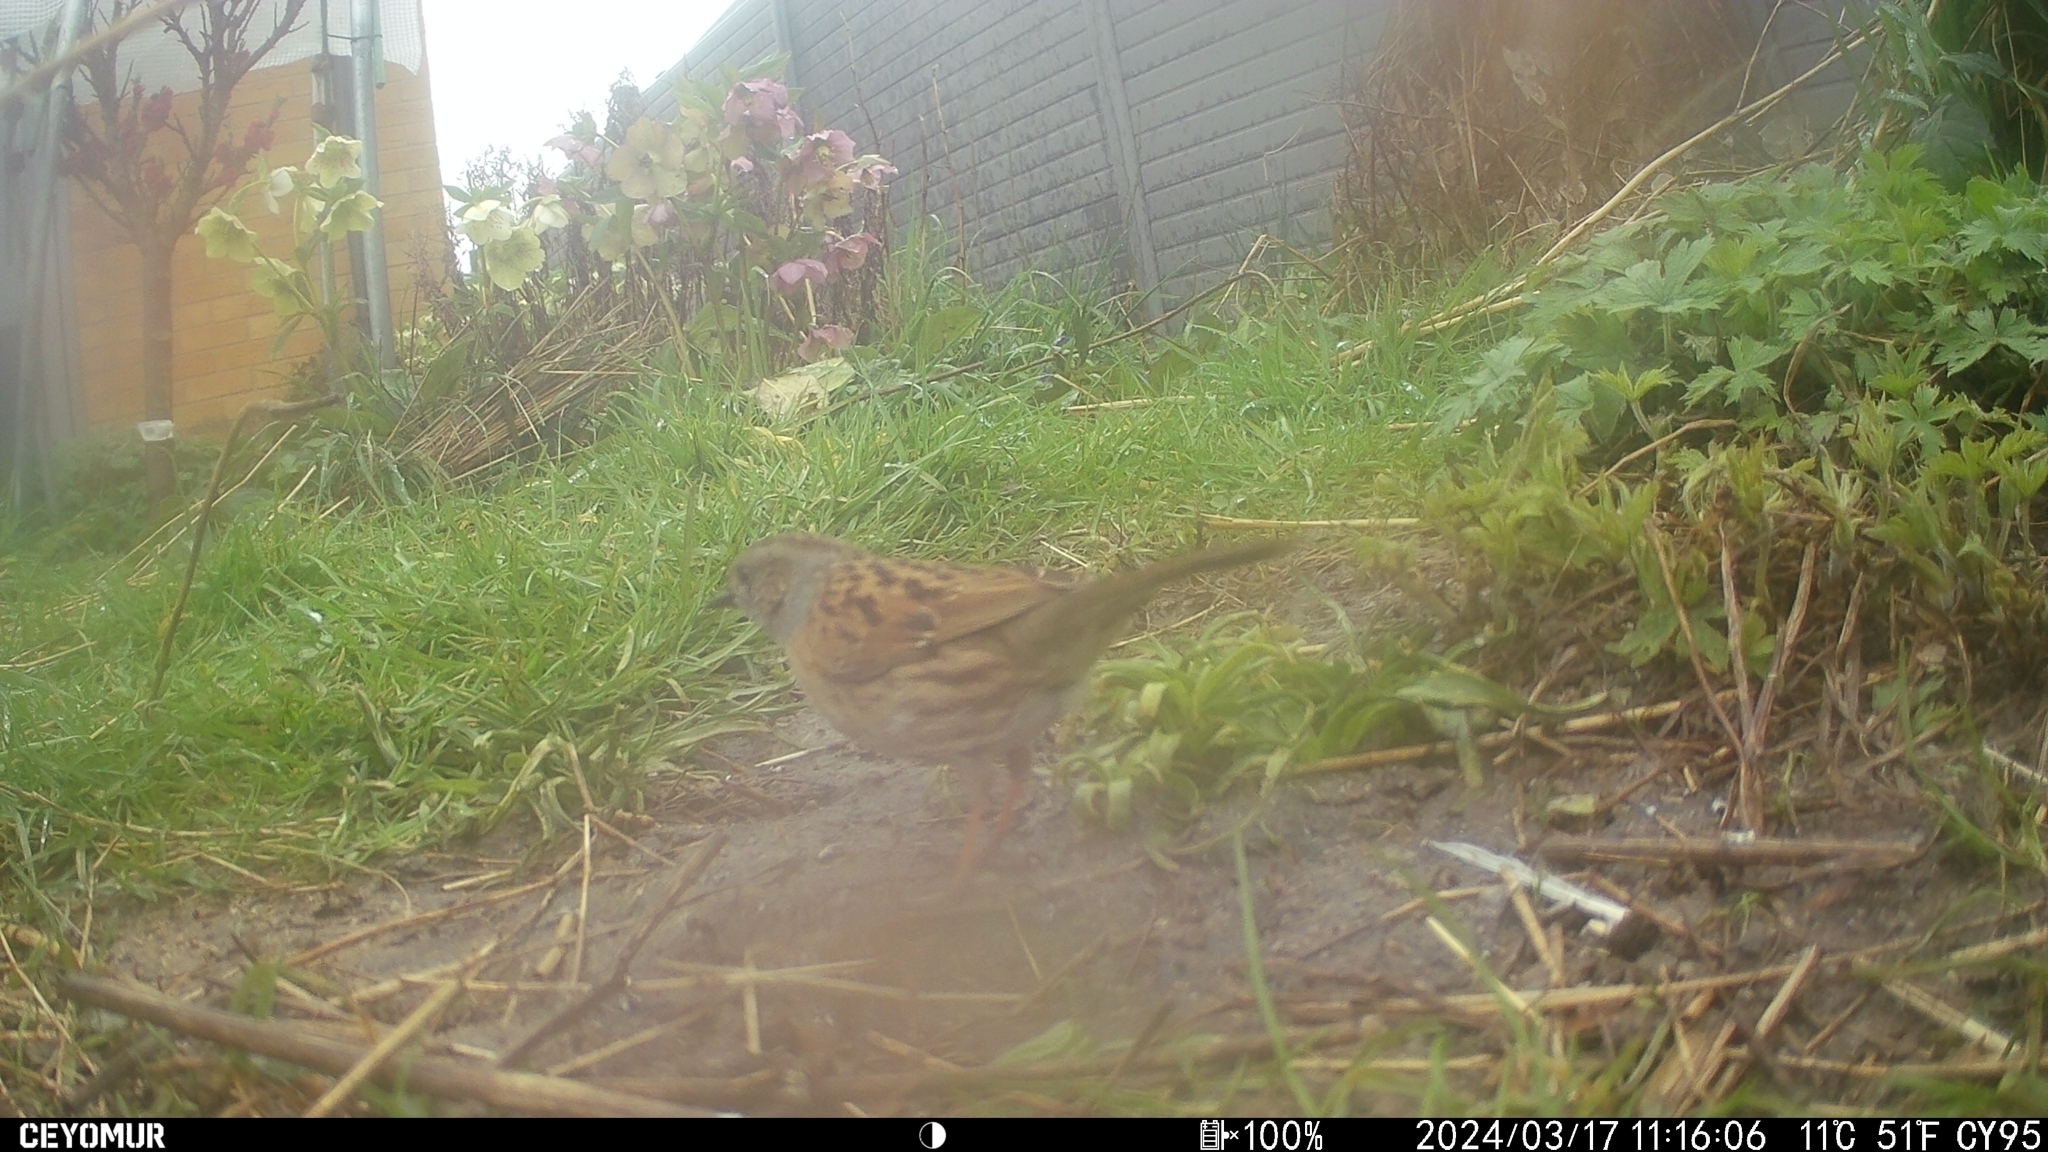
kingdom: Animalia
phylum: Chordata
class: Aves
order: Passeriformes
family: Prunellidae
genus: Prunella
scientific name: Prunella modularis
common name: Dunnock
